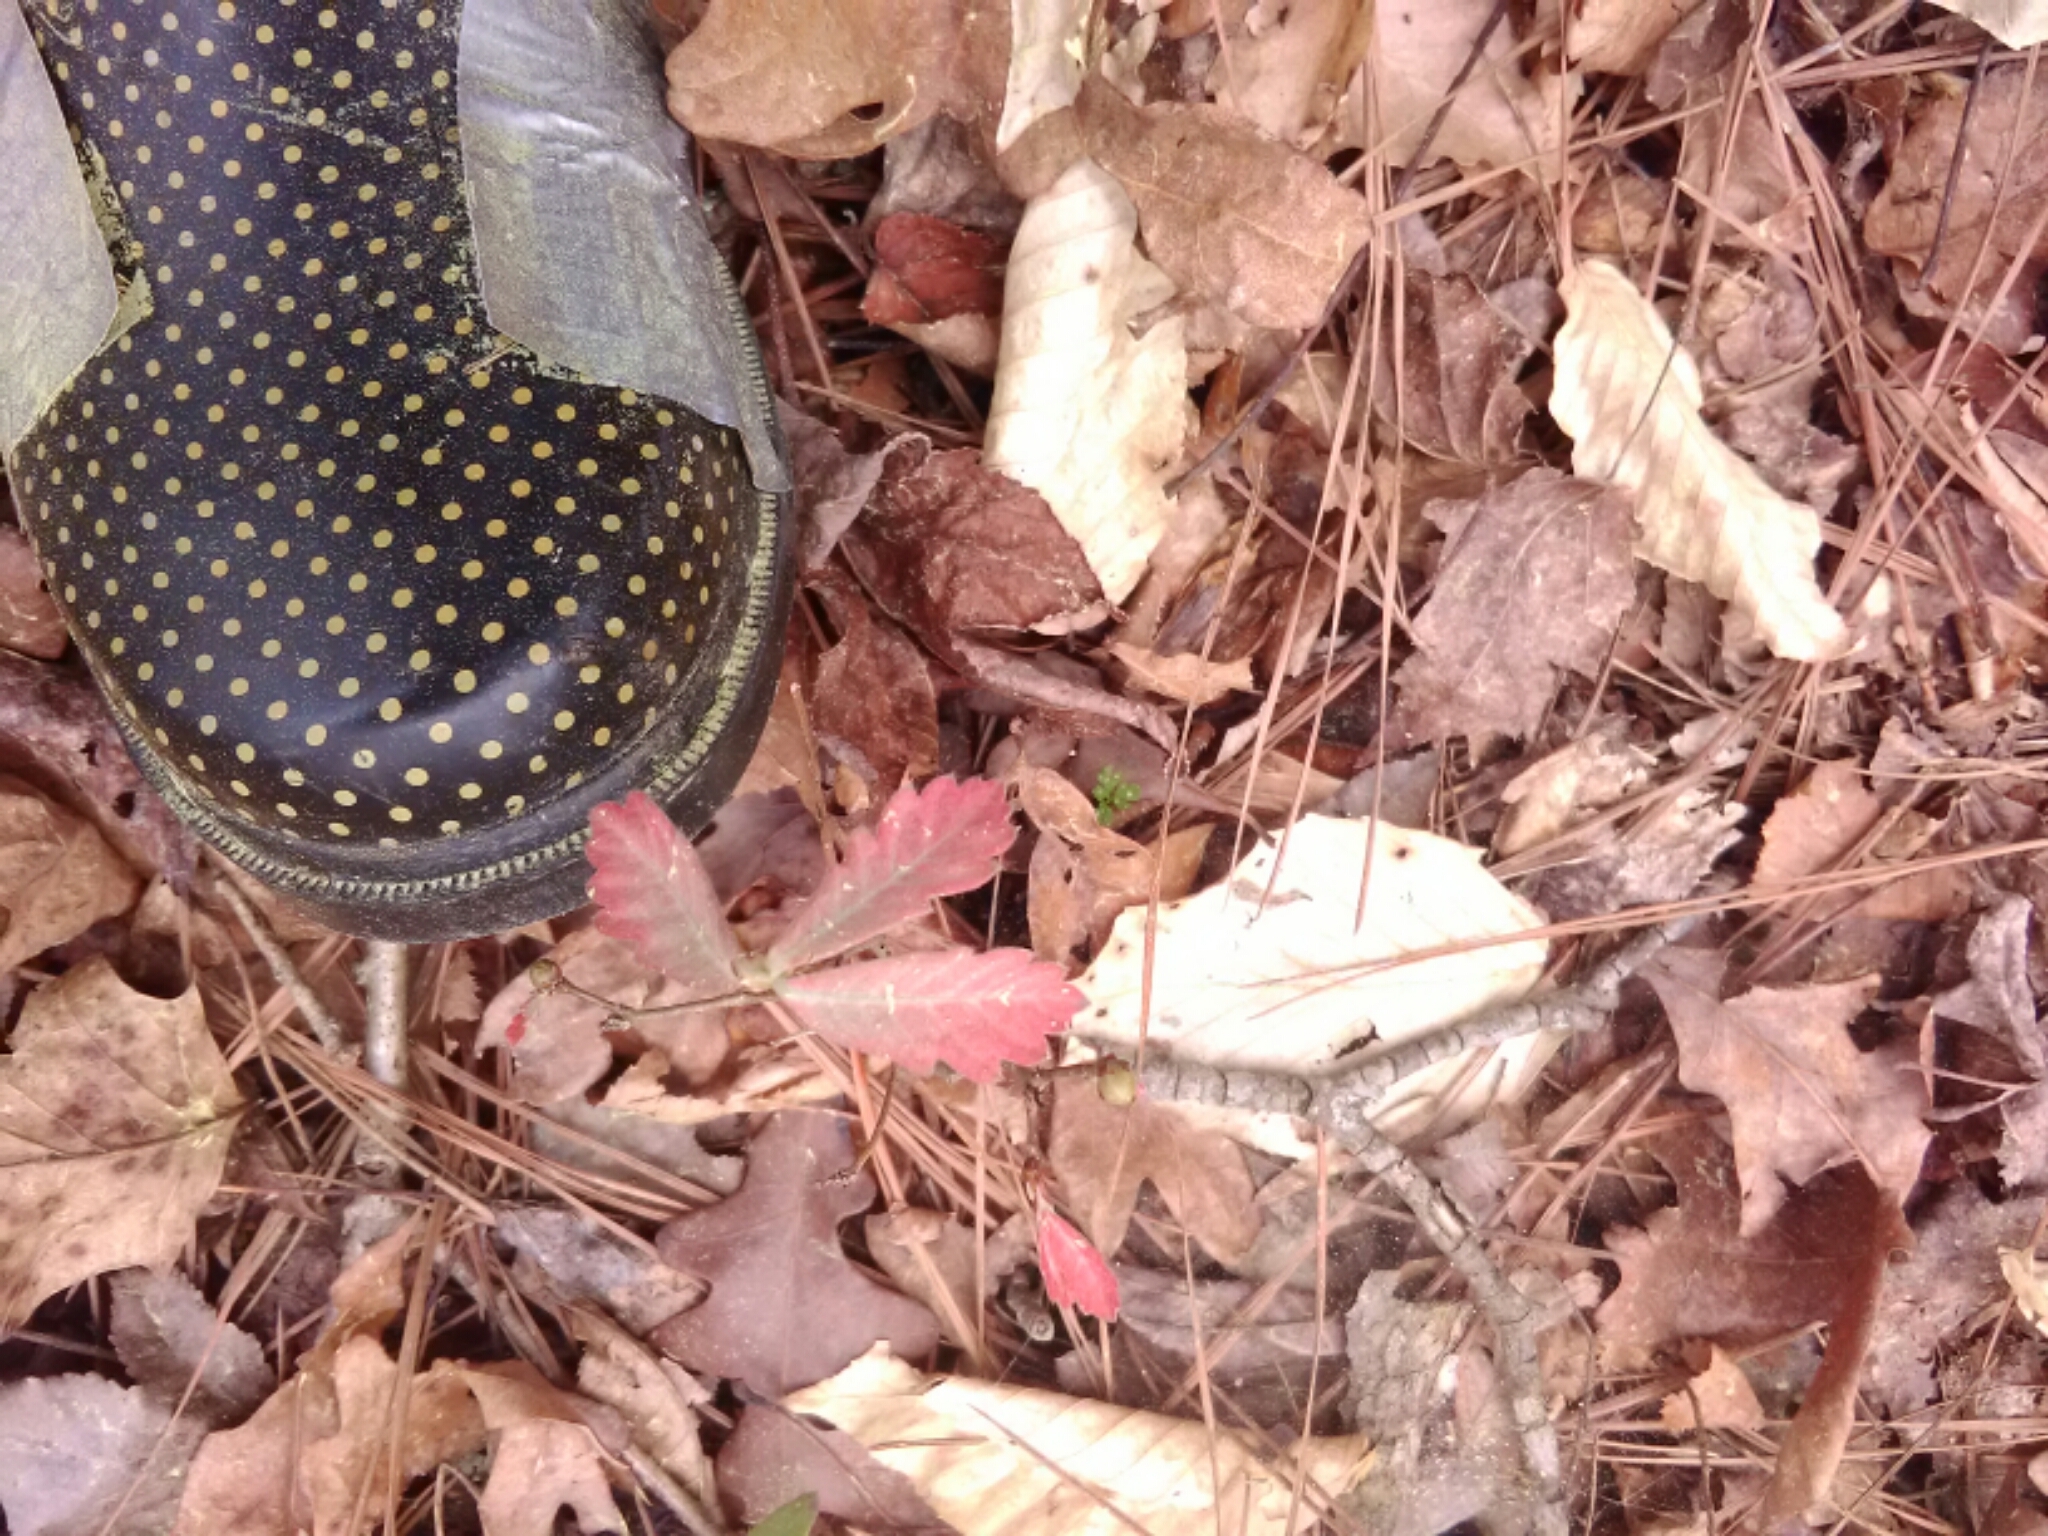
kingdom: Plantae
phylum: Tracheophyta
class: Magnoliopsida
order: Fagales
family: Fagaceae
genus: Quercus
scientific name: Quercus alba
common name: White oak
